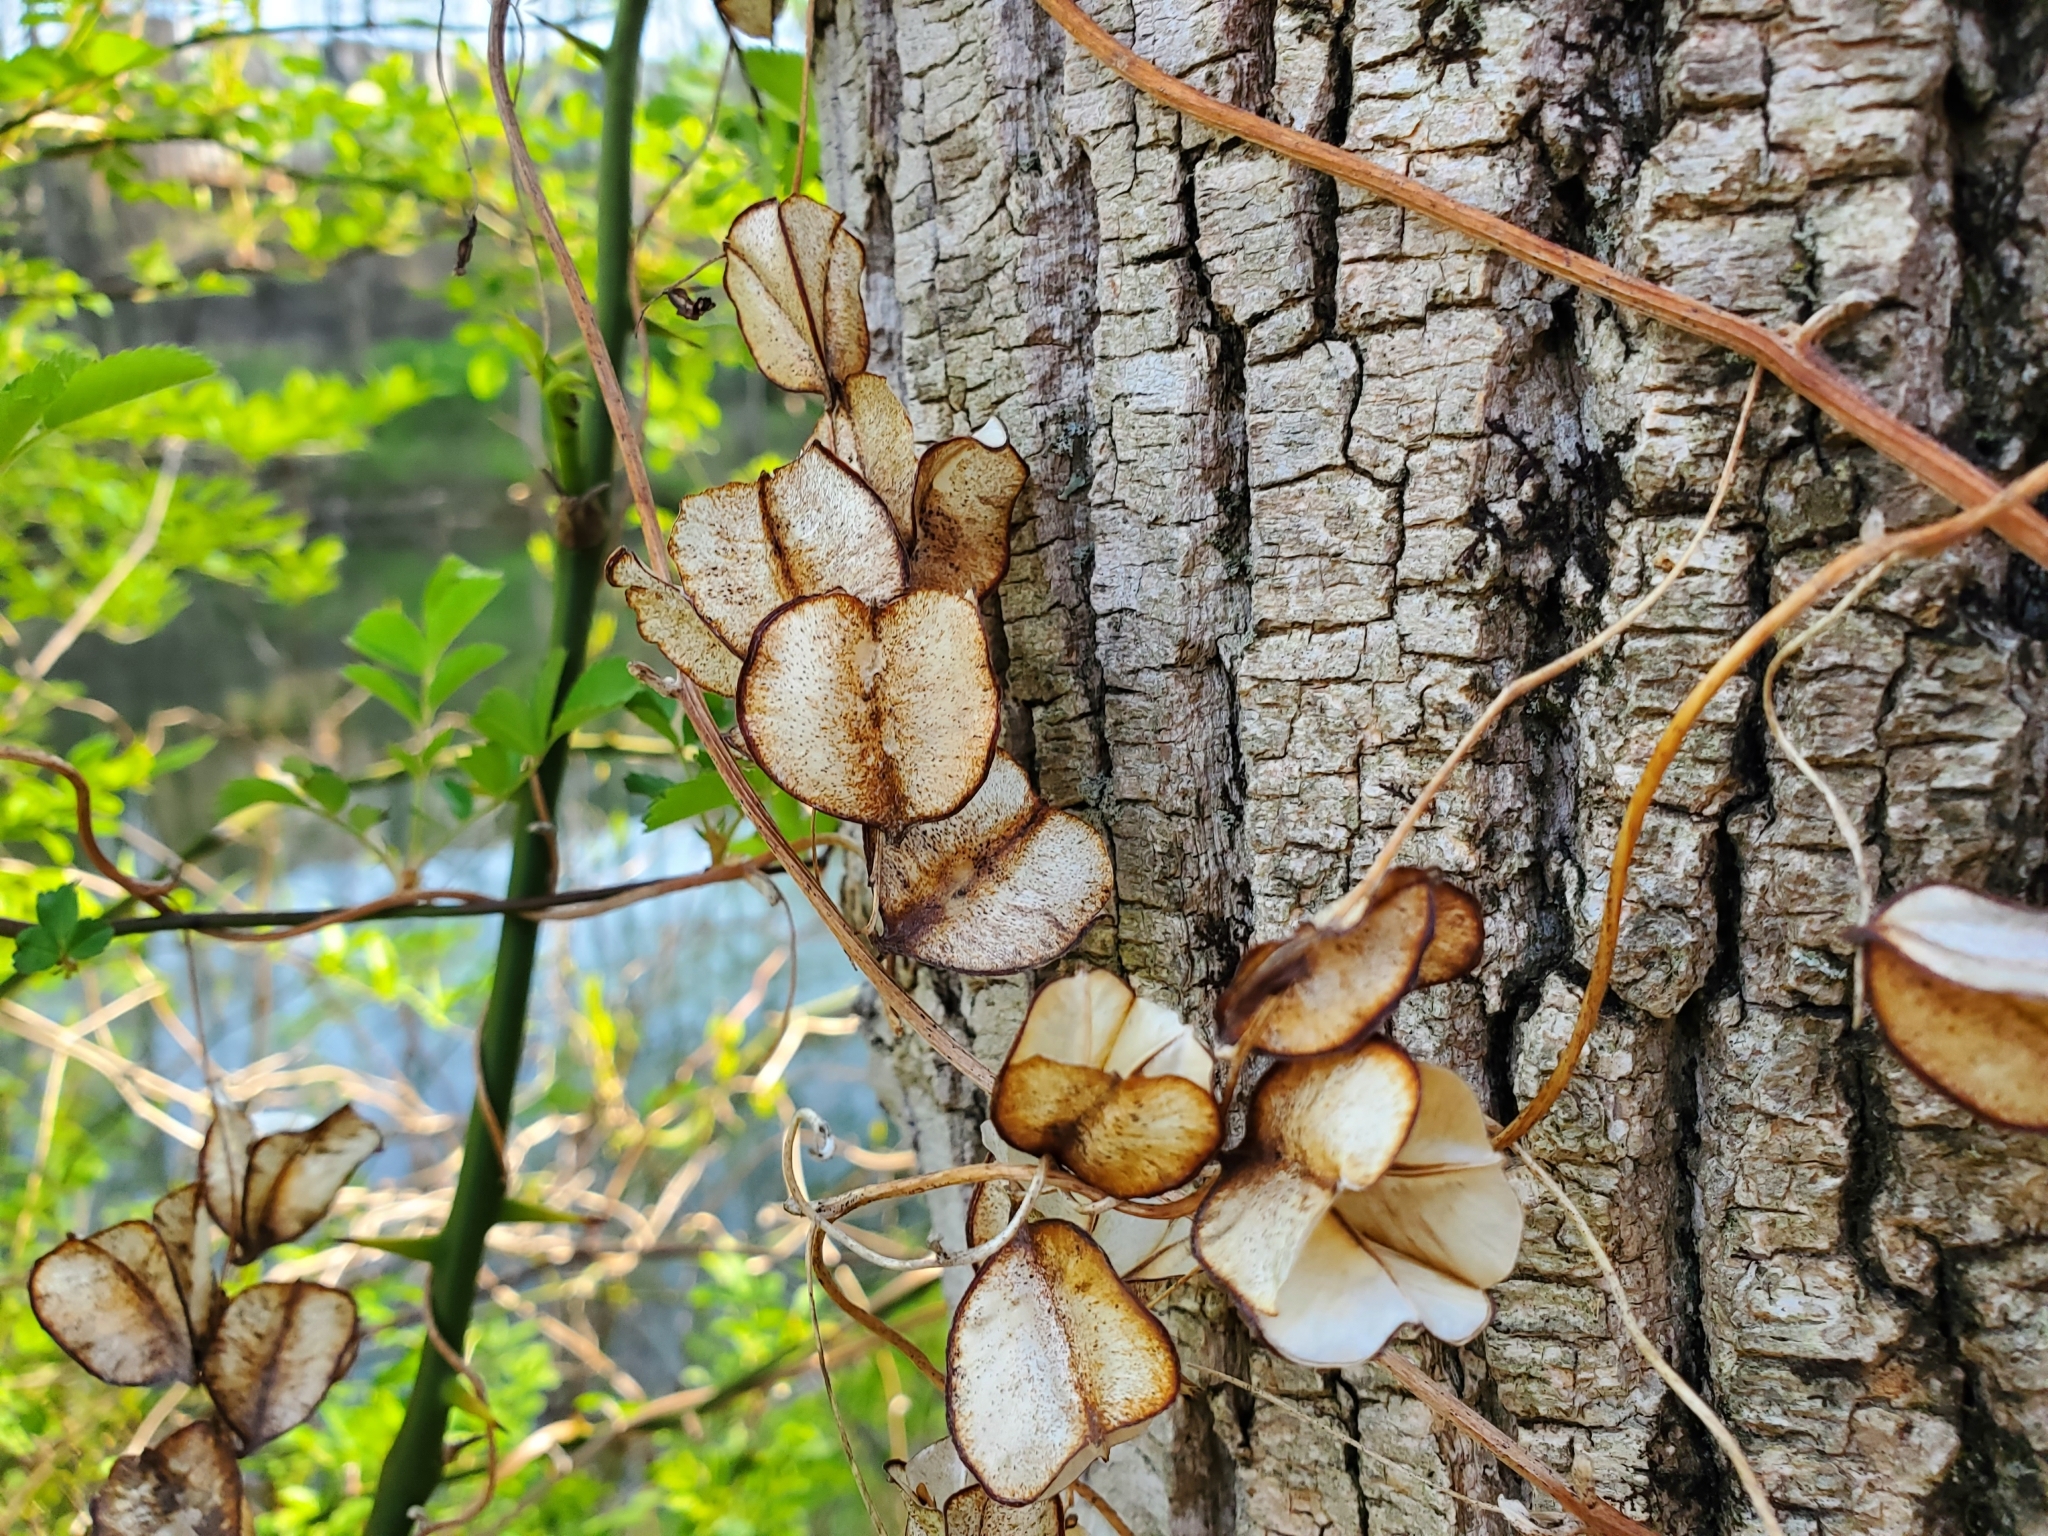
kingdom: Plantae
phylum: Tracheophyta
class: Liliopsida
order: Dioscoreales
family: Dioscoreaceae
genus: Dioscorea
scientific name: Dioscorea villosa
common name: Wild yam
